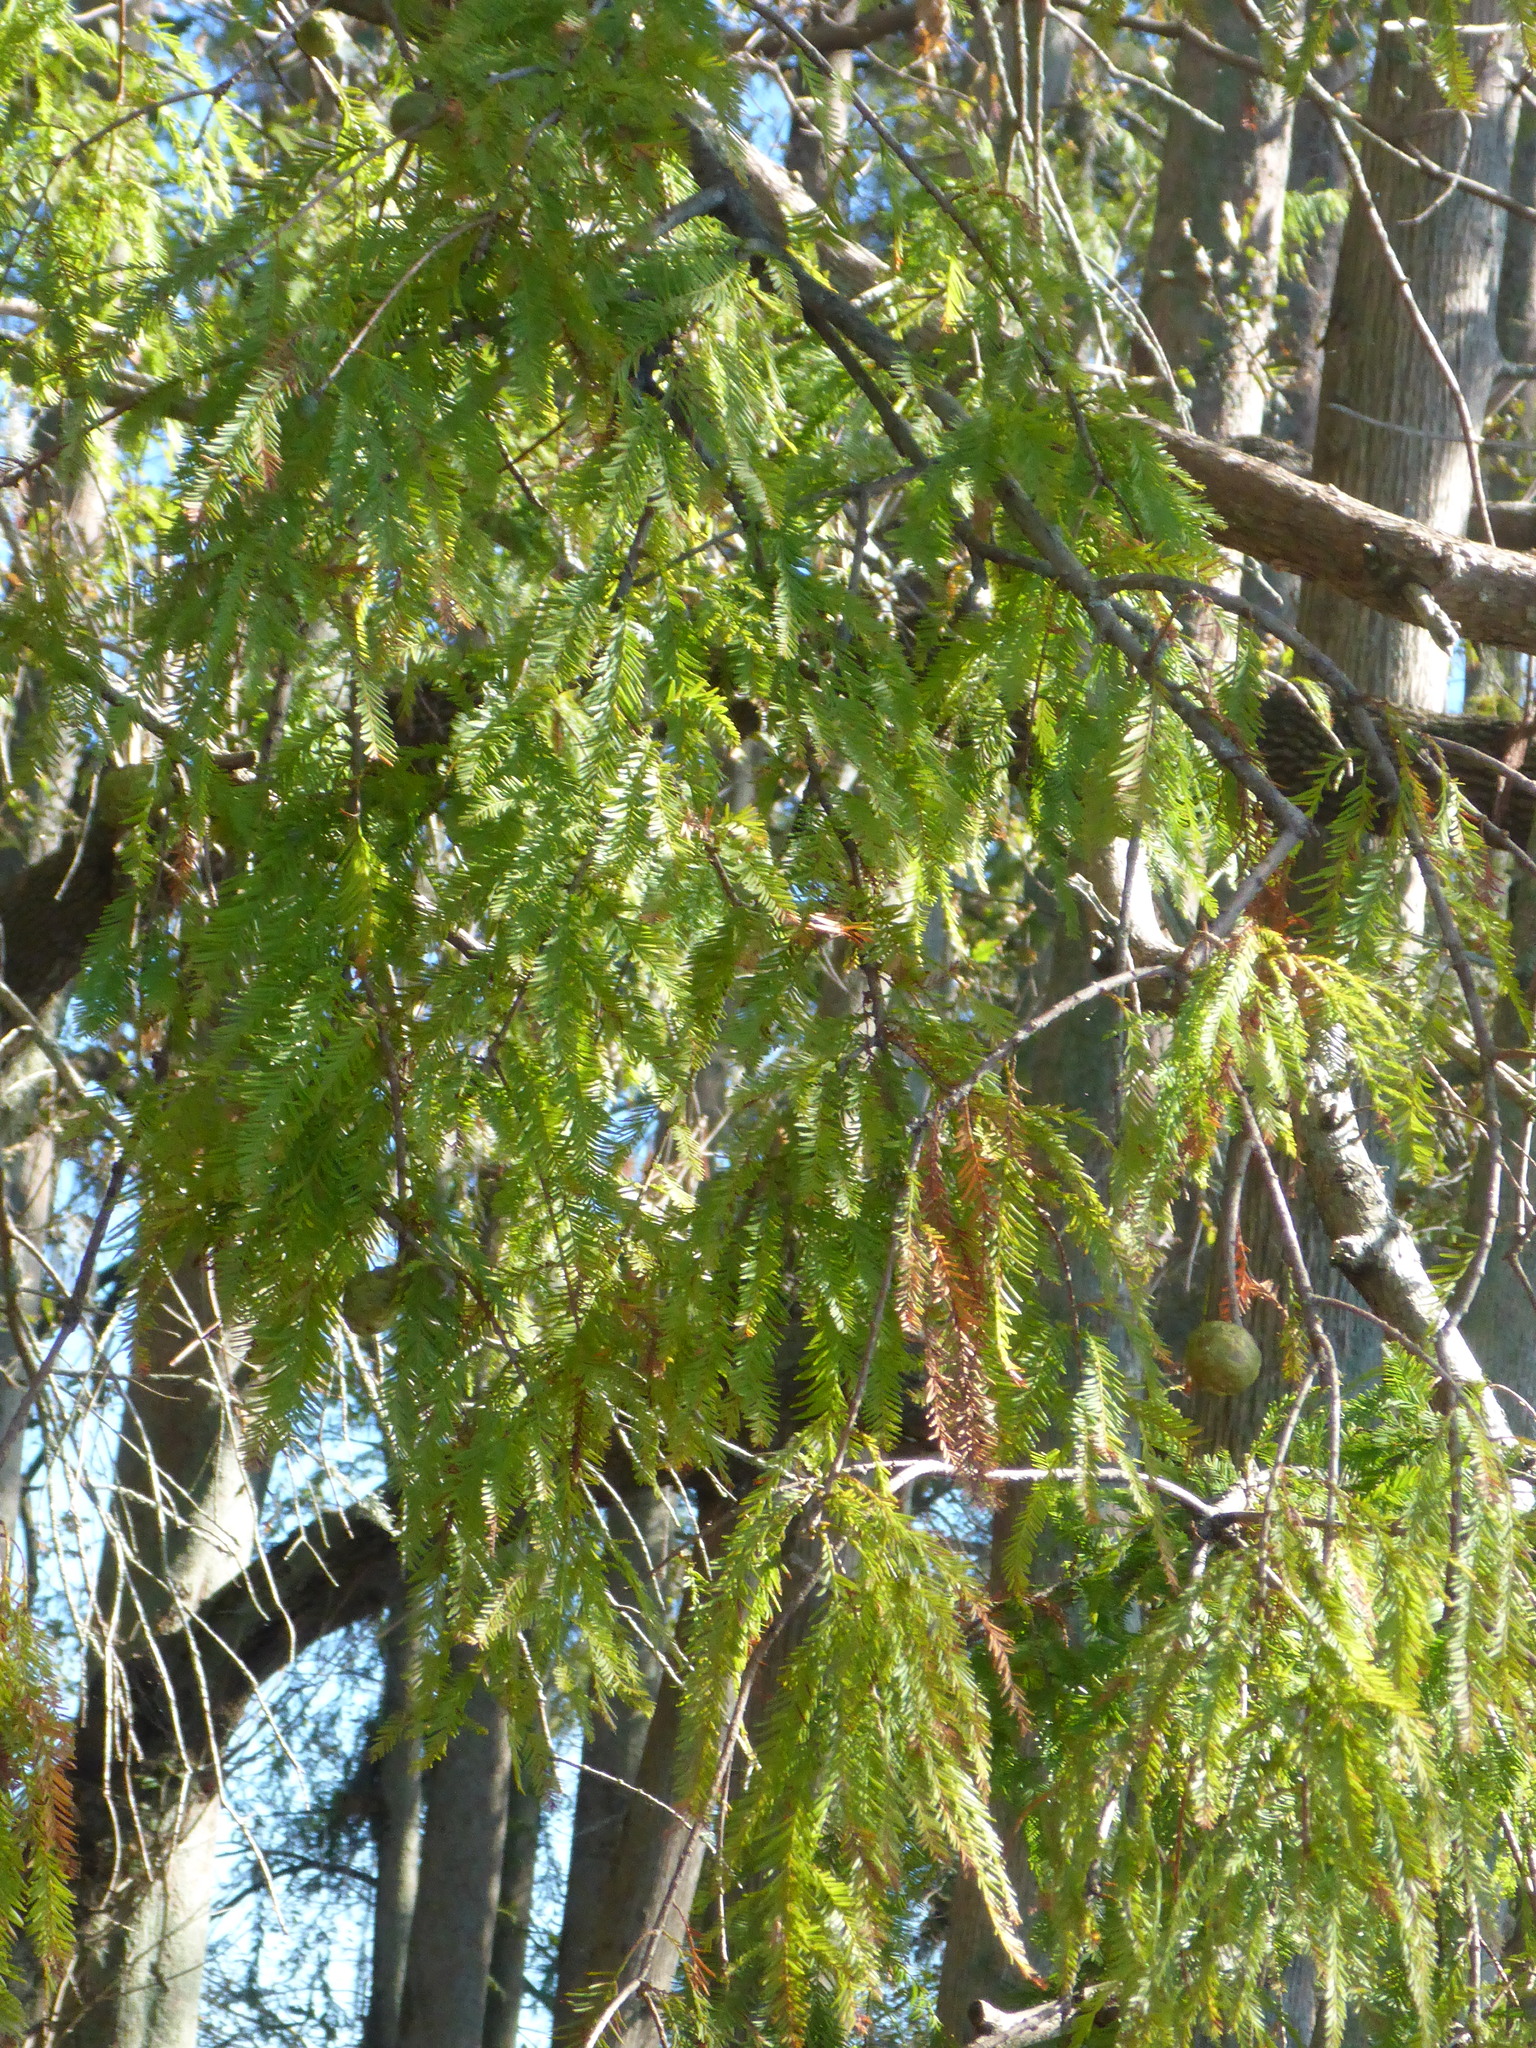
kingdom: Plantae
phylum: Tracheophyta
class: Pinopsida
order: Pinales
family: Cupressaceae
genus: Taxodium
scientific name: Taxodium distichum
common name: Bald cypress
